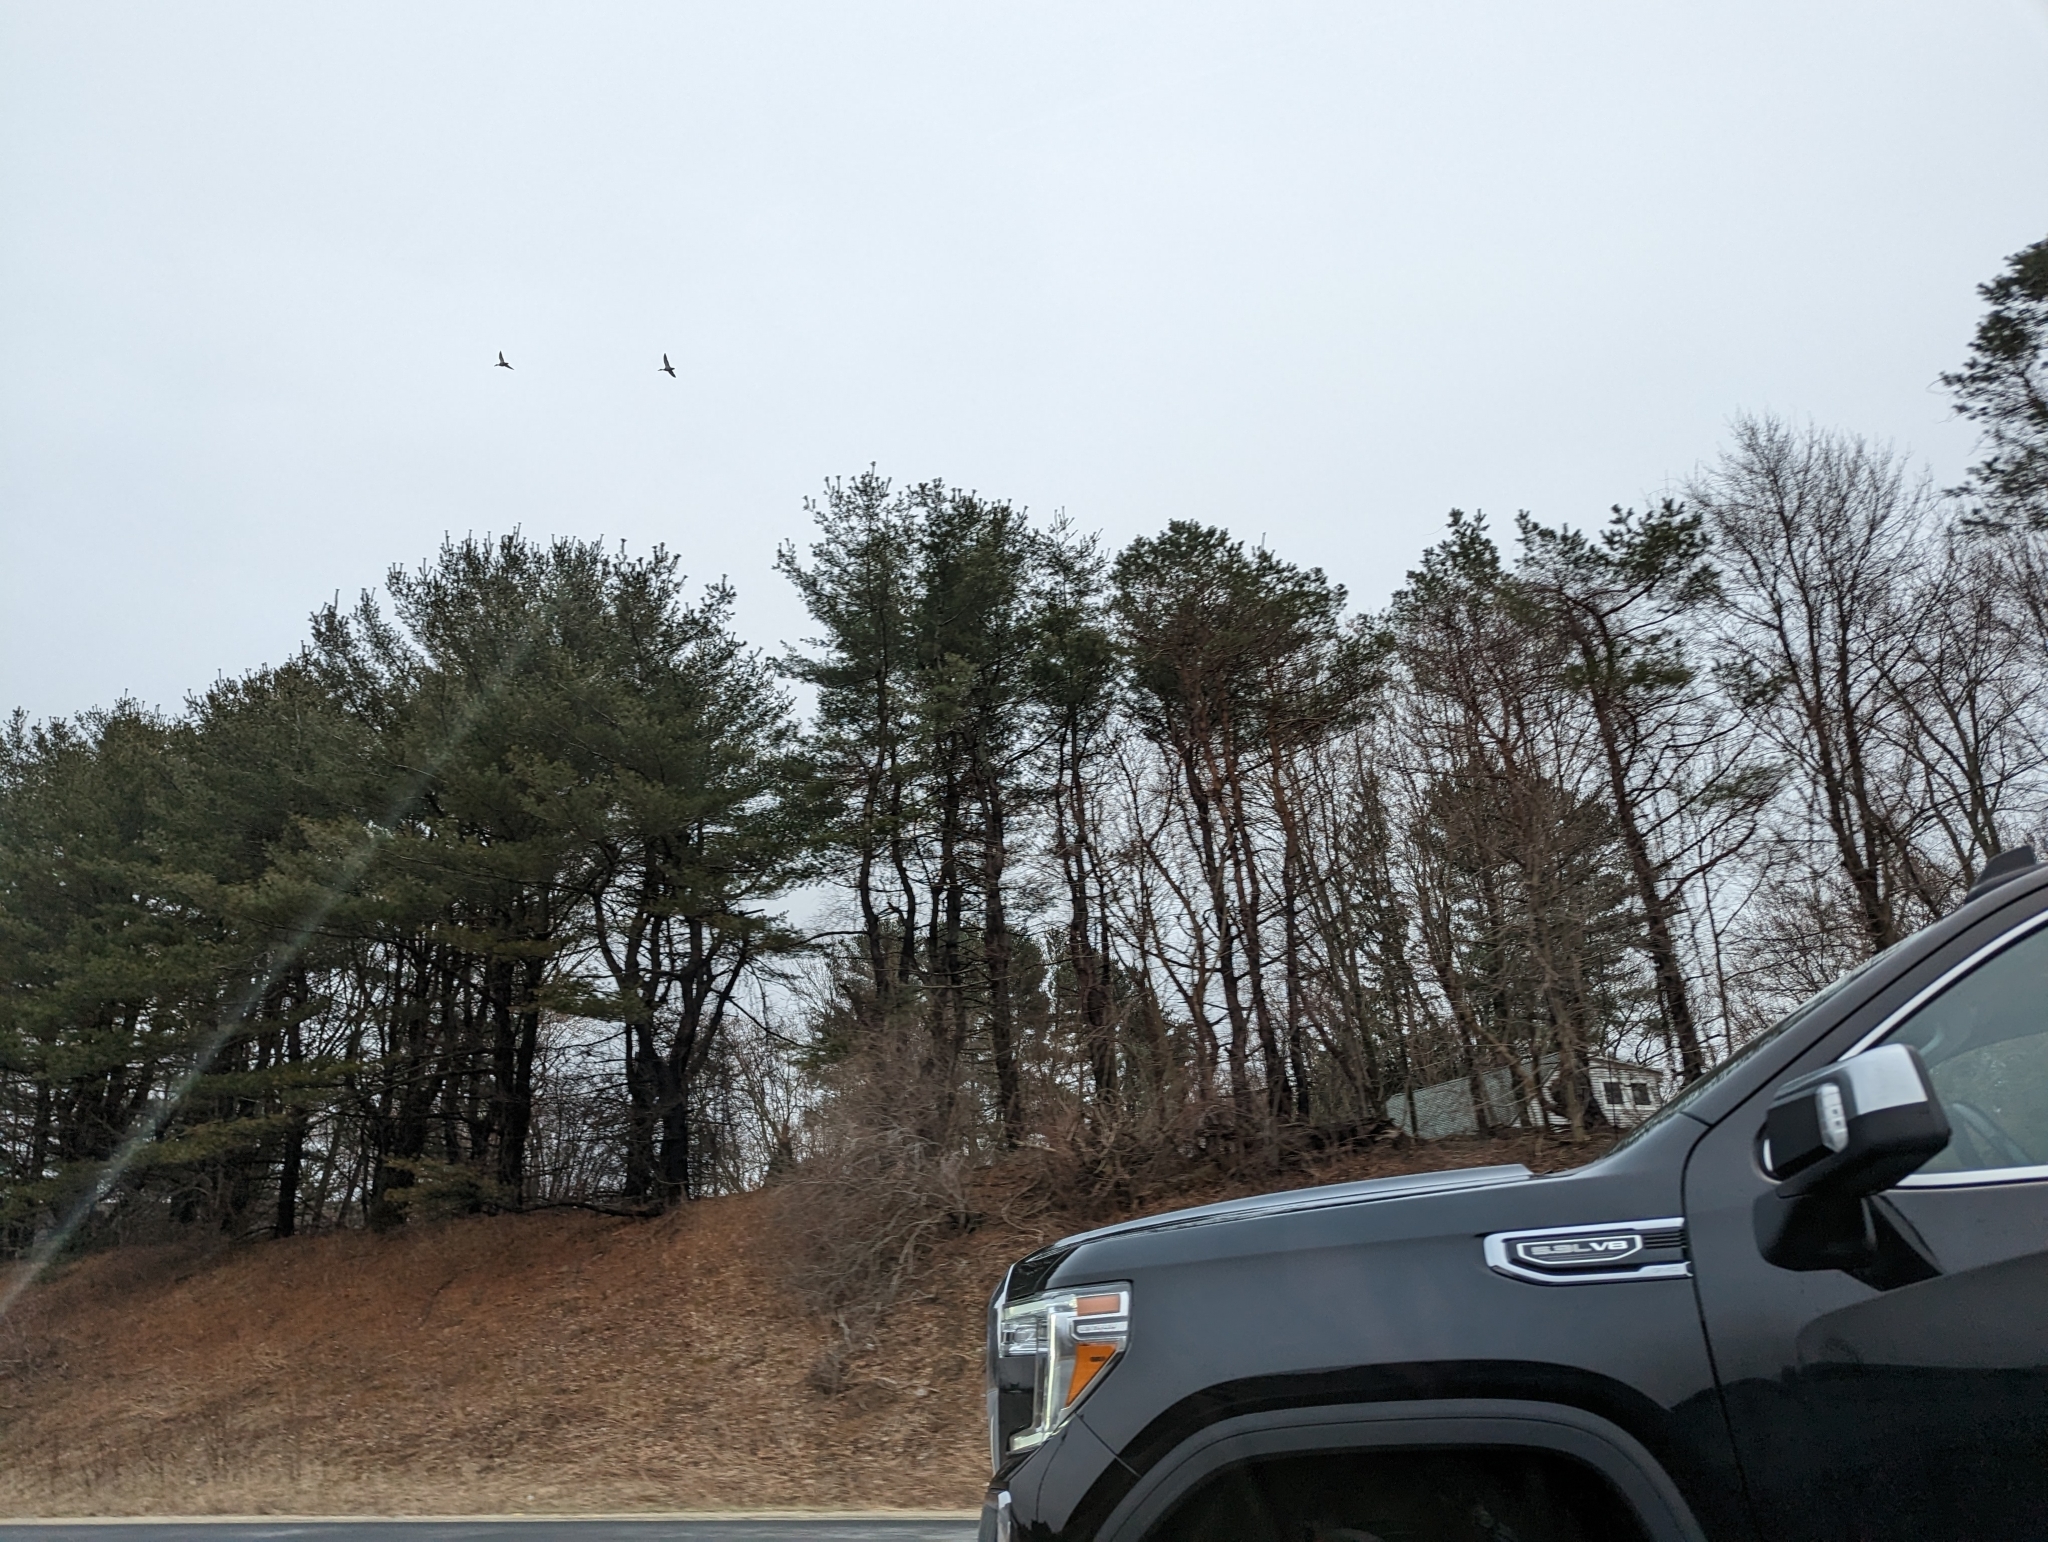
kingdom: Plantae
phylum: Tracheophyta
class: Pinopsida
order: Pinales
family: Pinaceae
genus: Pinus
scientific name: Pinus strobus
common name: Weymouth pine
